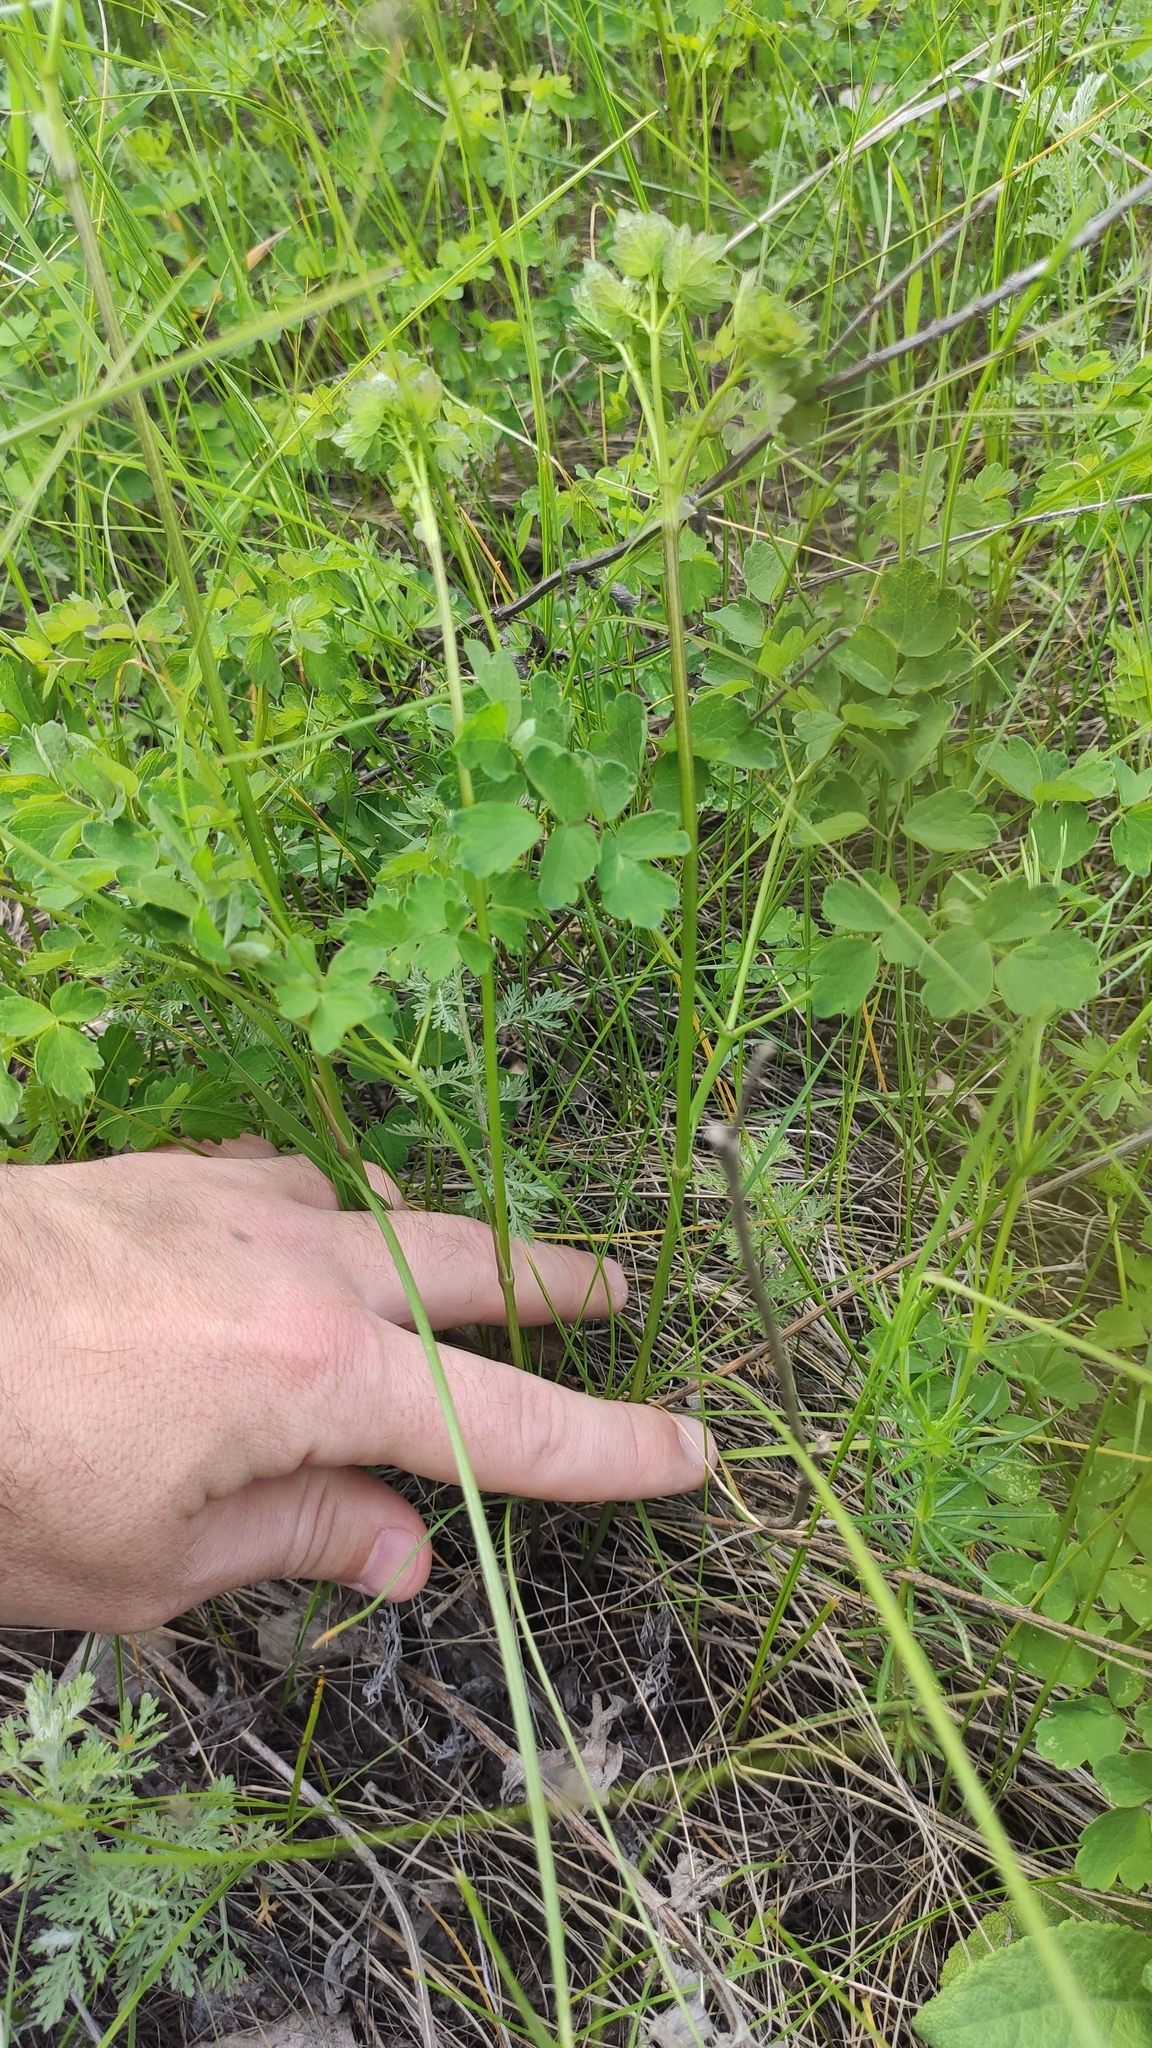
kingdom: Plantae
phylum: Tracheophyta
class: Magnoliopsida
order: Ranunculales
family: Ranunculaceae
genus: Thalictrum
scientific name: Thalictrum minus
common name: Lesser meadow-rue
